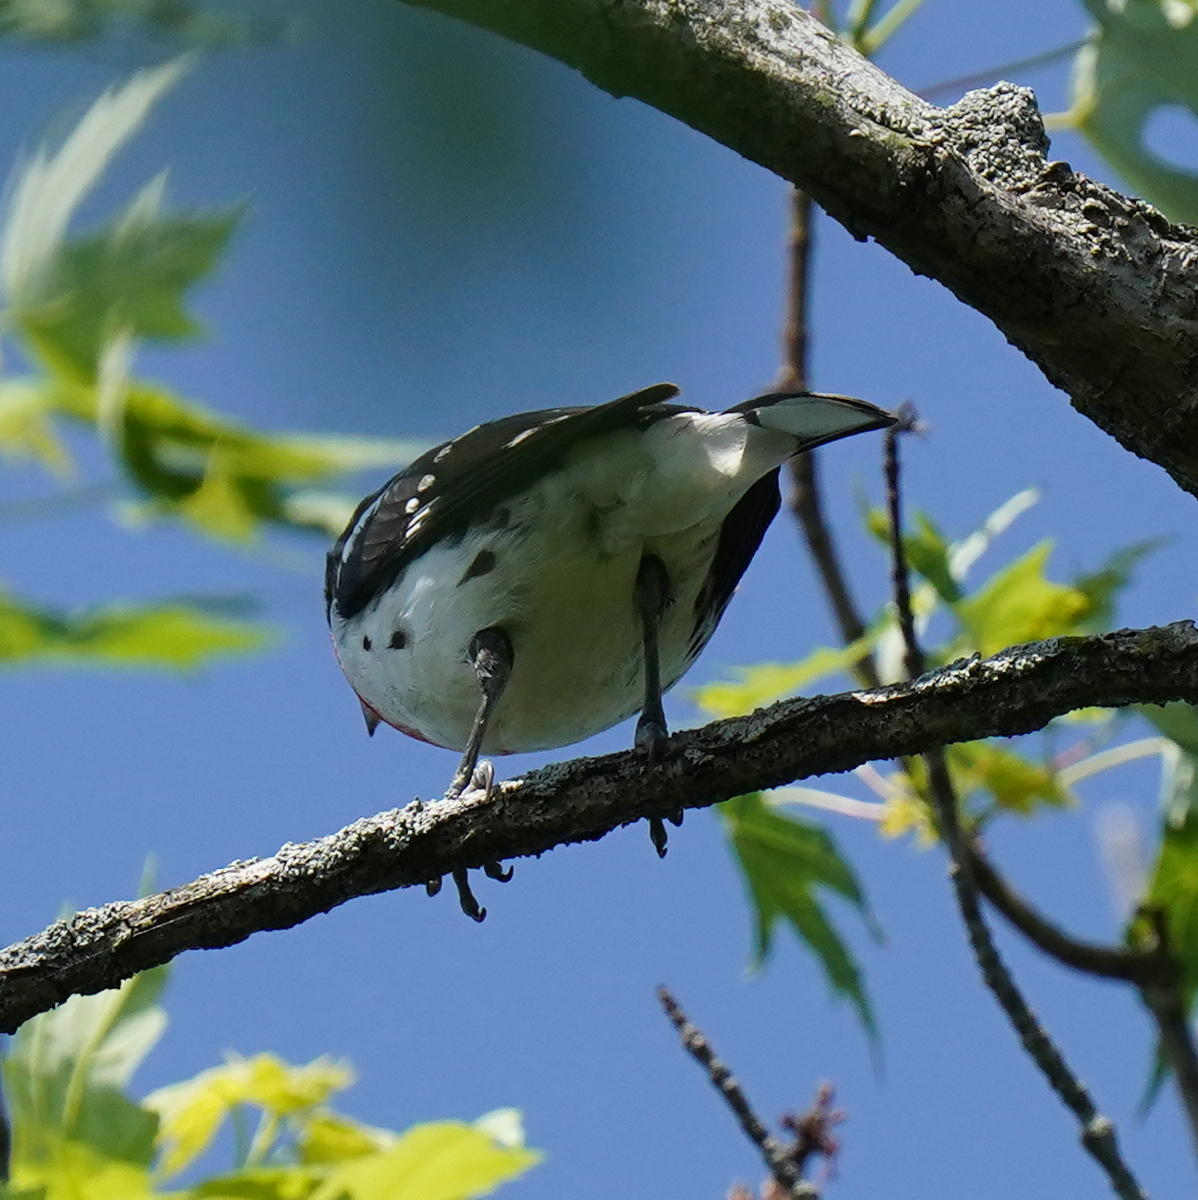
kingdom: Animalia
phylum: Chordata
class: Aves
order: Passeriformes
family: Cardinalidae
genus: Pheucticus
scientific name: Pheucticus ludovicianus
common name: Rose-breasted grosbeak
